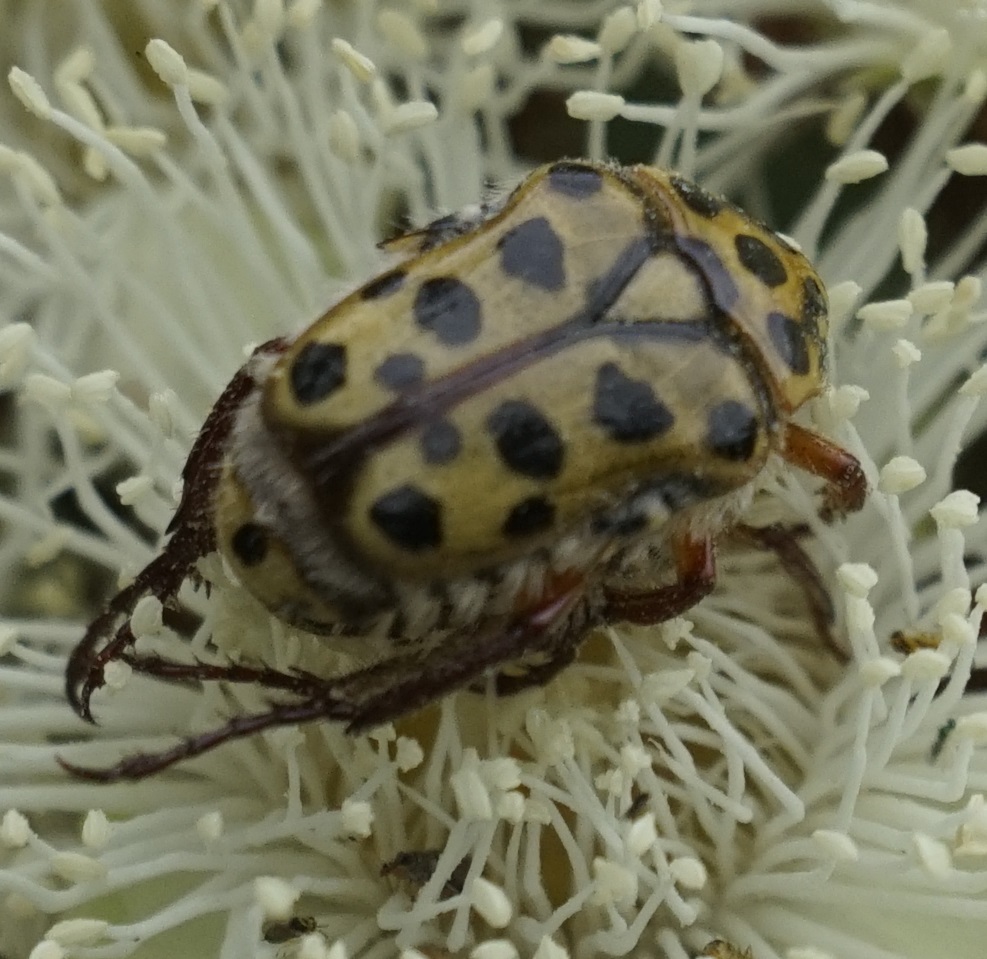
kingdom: Animalia
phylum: Arthropoda
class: Insecta
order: Coleoptera
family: Scarabaeidae
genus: Neorrhina
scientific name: Neorrhina punctatum
